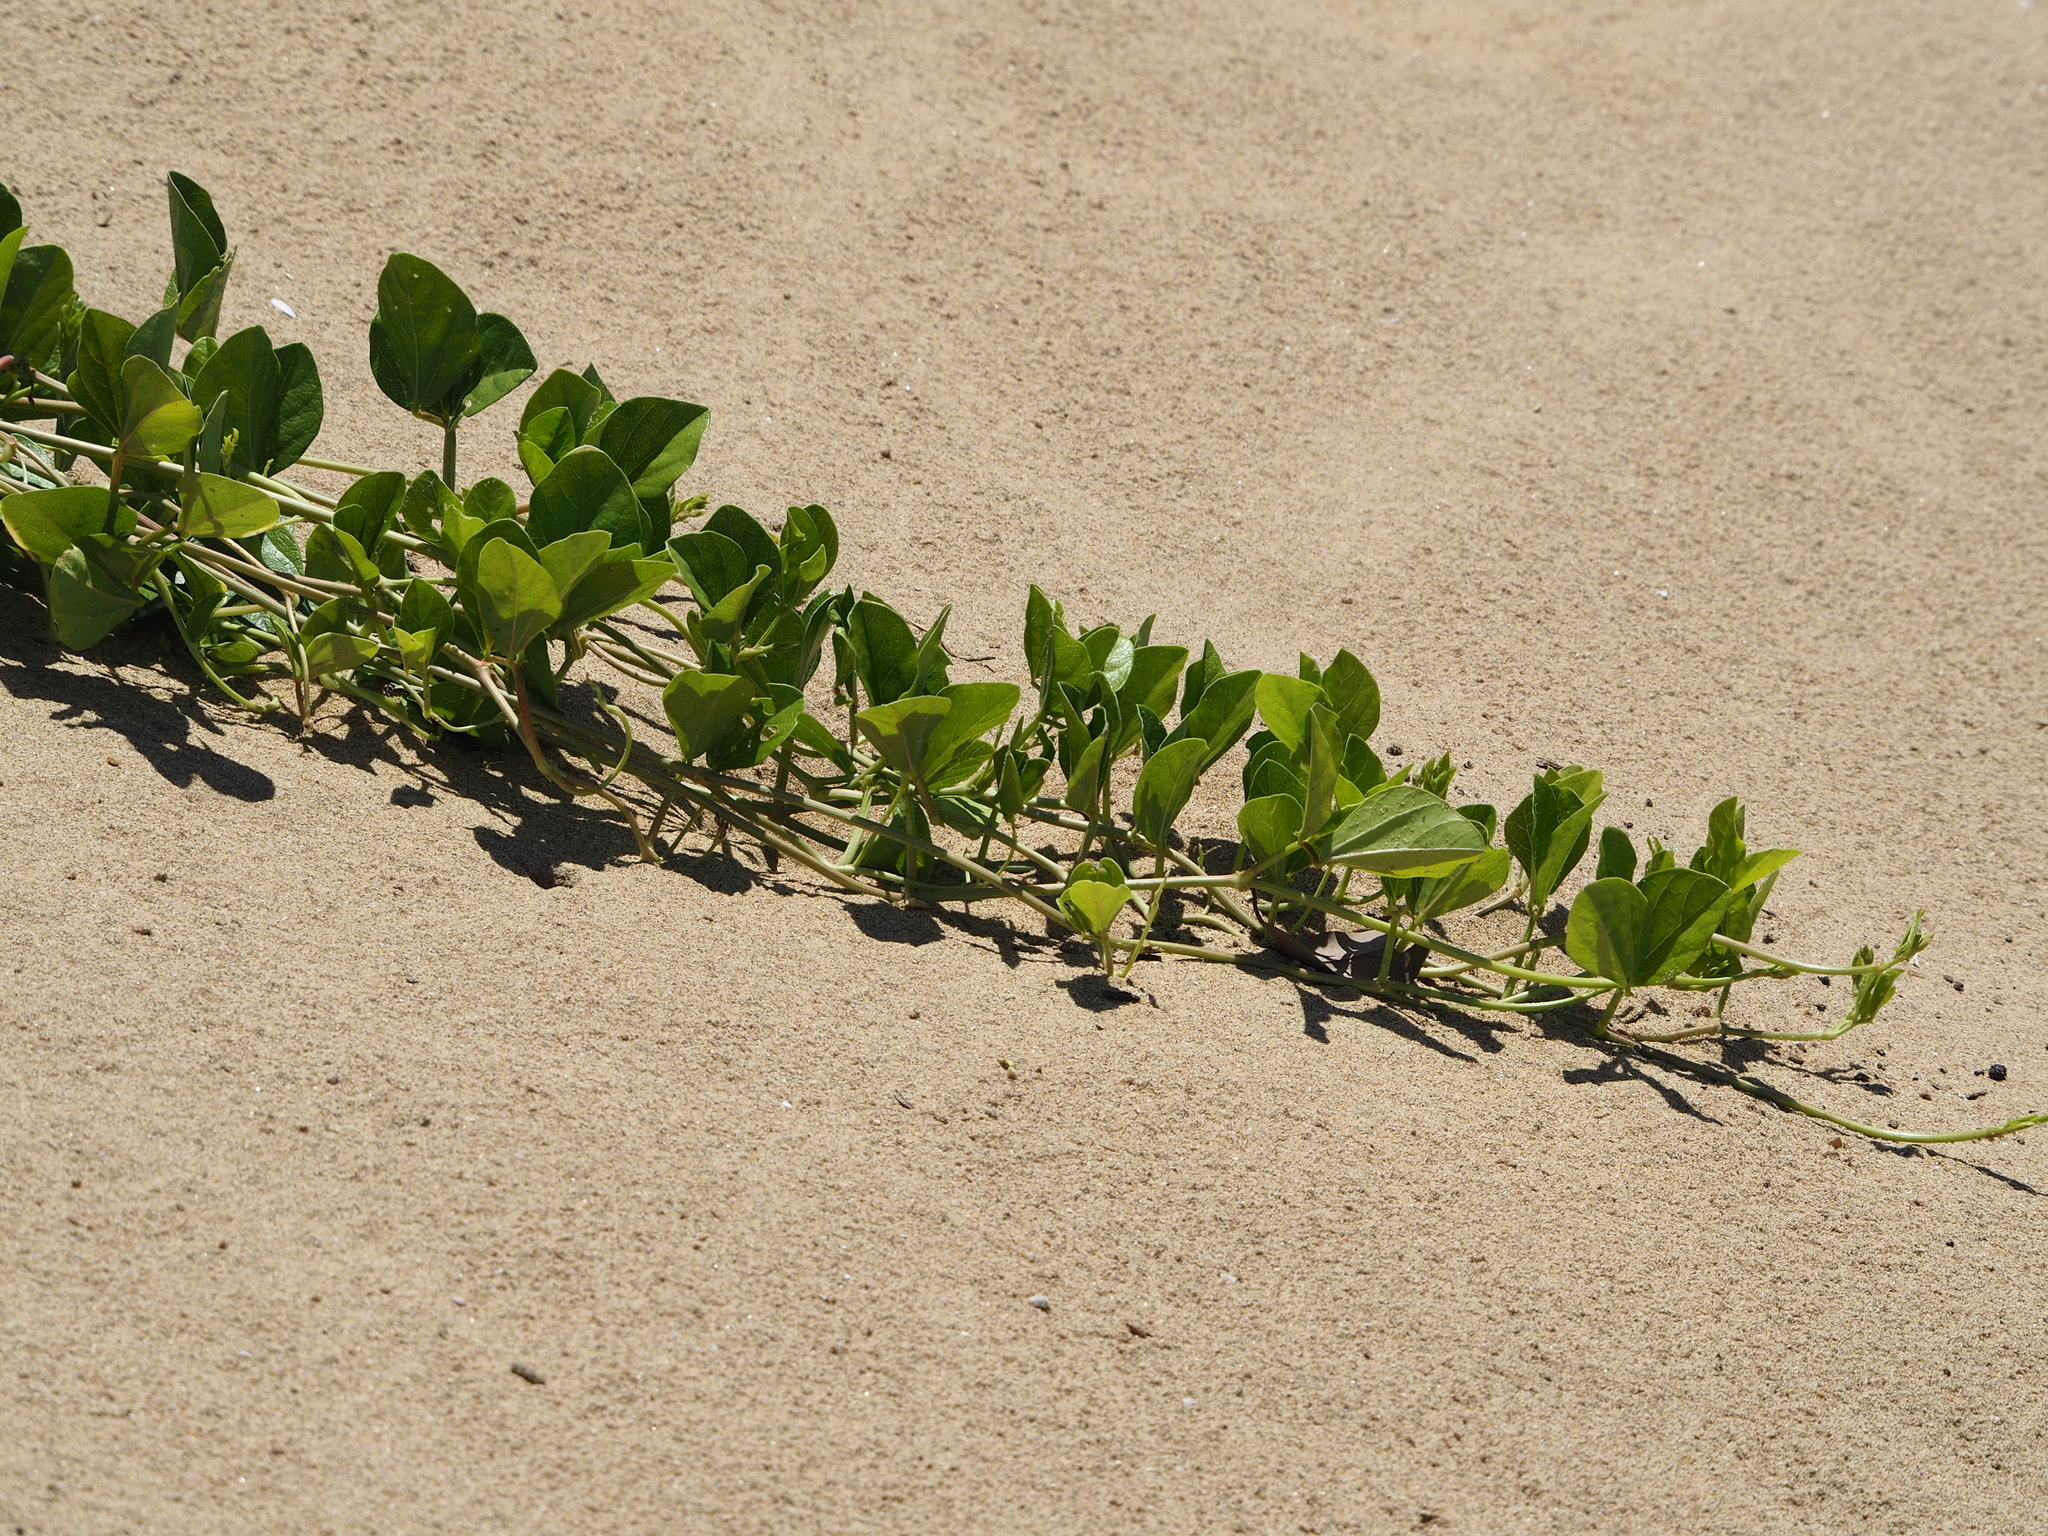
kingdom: Plantae
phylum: Tracheophyta
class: Magnoliopsida
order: Fabales
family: Fabaceae
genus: Vigna
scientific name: Vigna marina
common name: Dune-bean
